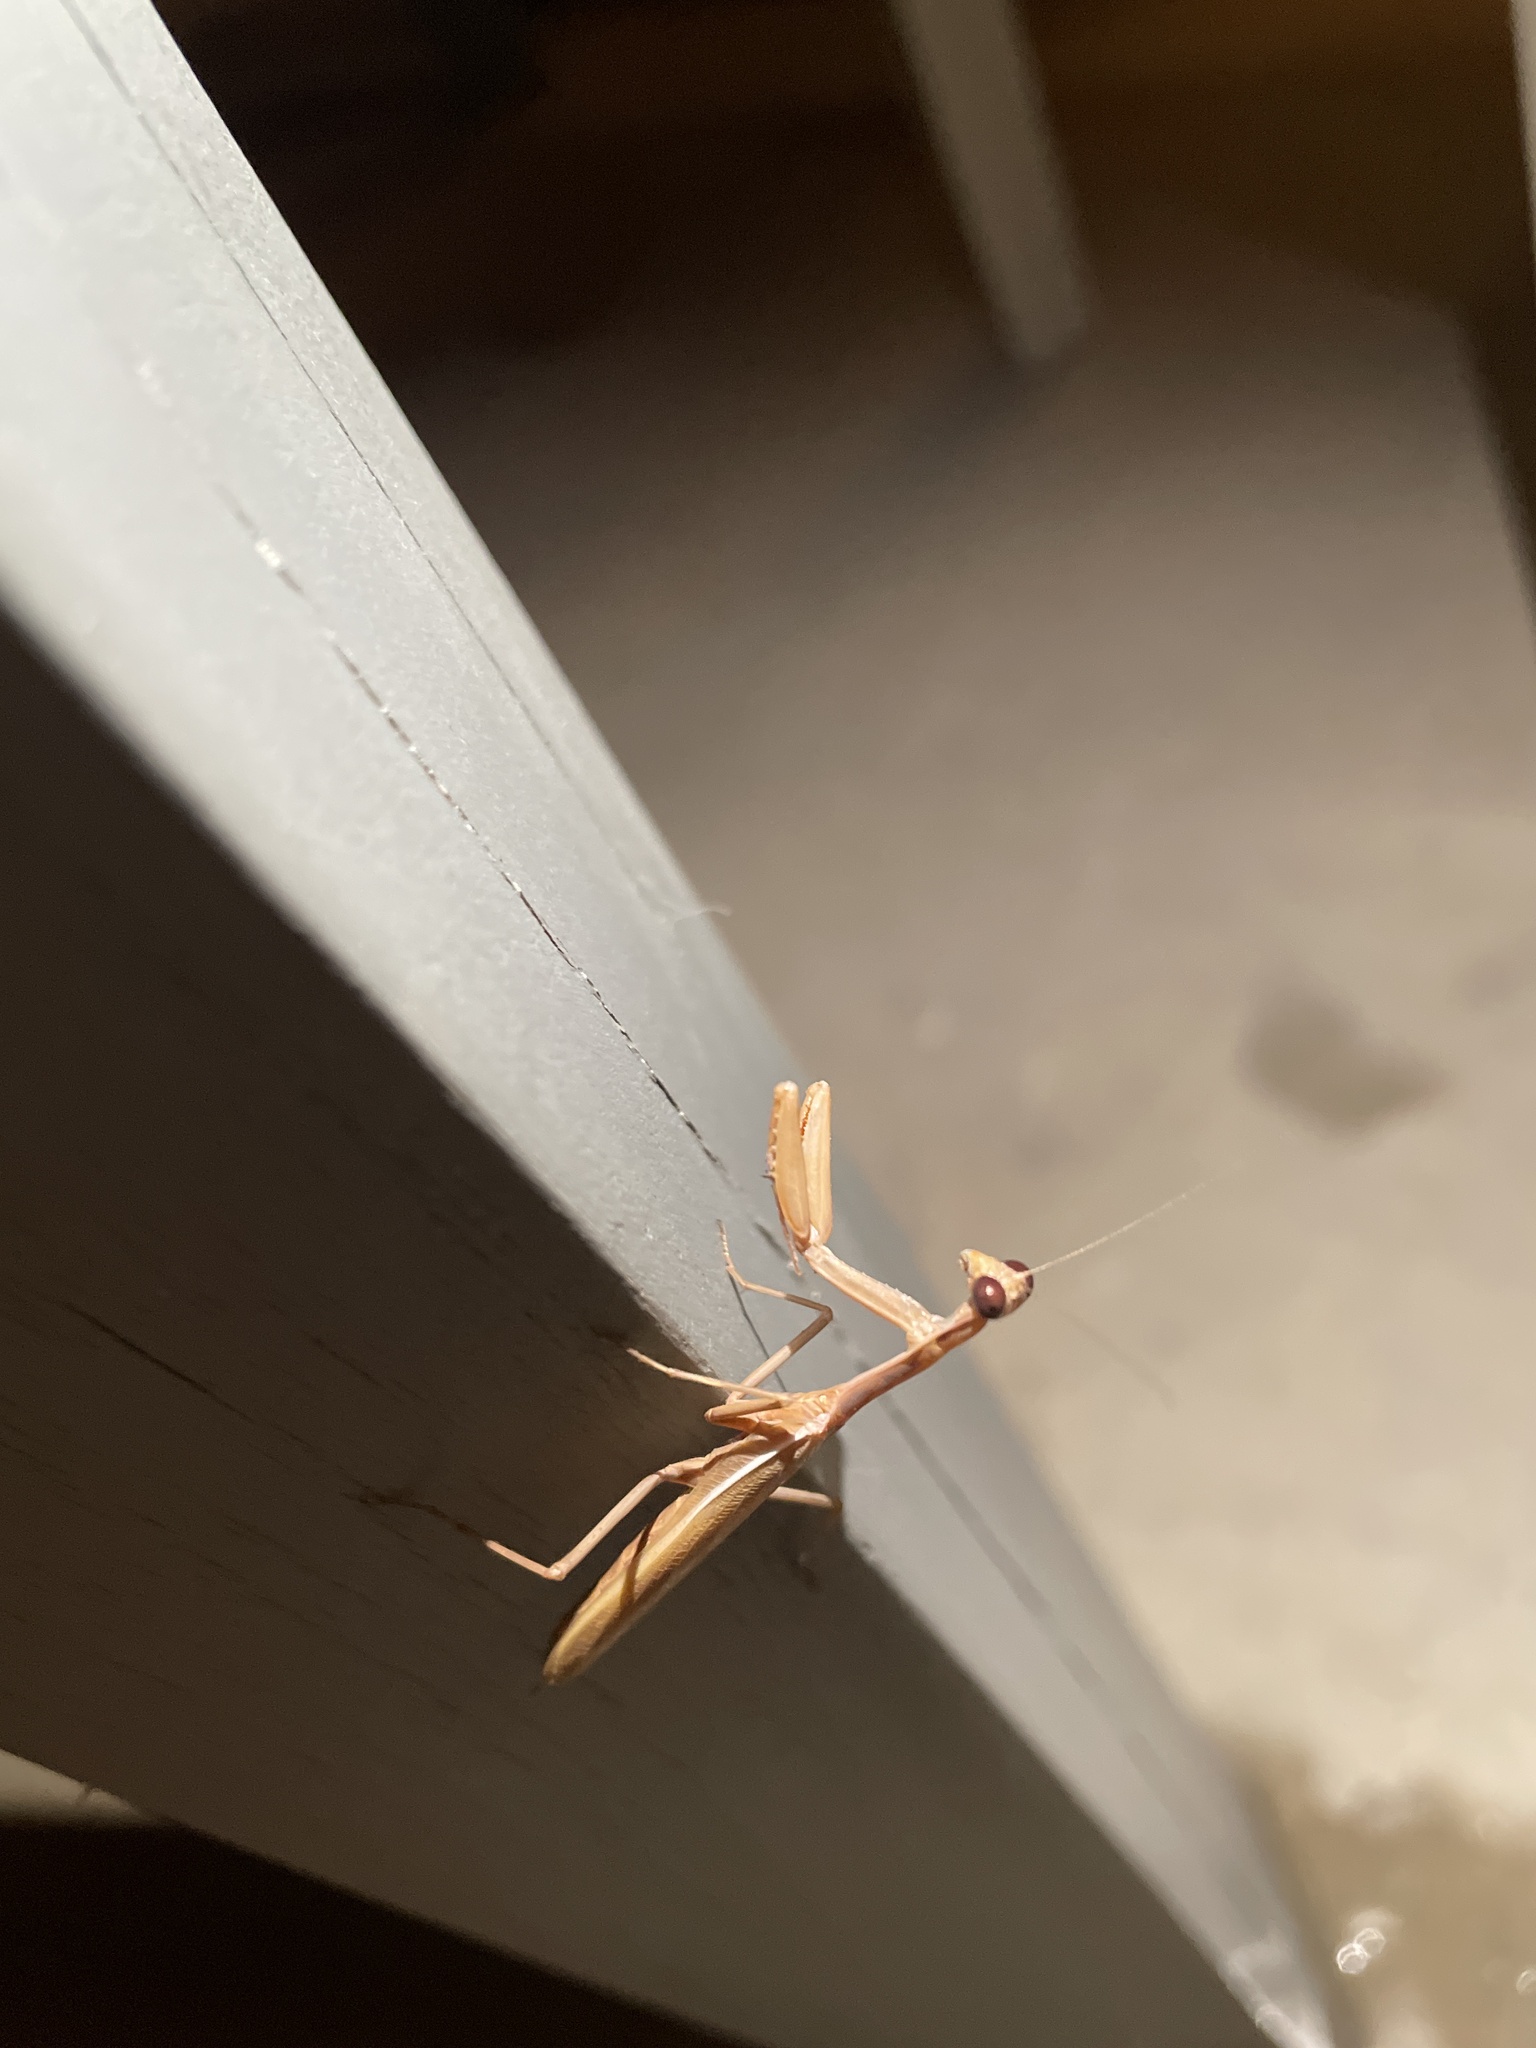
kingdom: Animalia
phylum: Arthropoda
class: Insecta
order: Mantodea
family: Eremiaphilidae
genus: Iris
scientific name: Iris oratoria
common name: Mediterranean mantis
